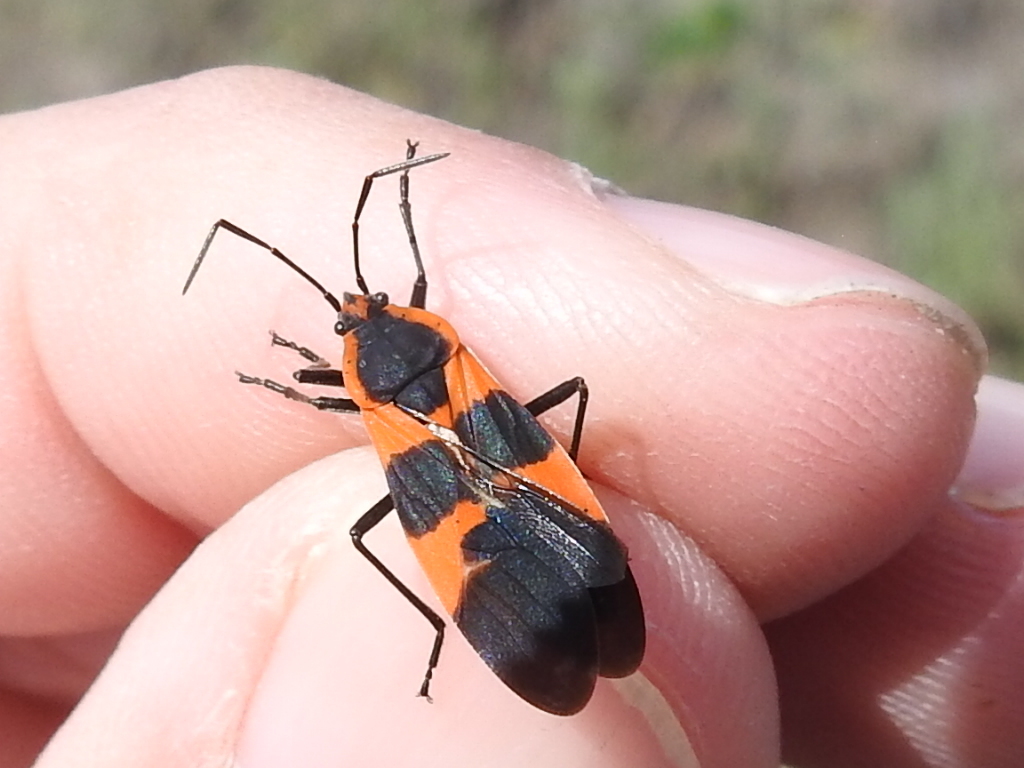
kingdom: Animalia
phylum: Arthropoda
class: Insecta
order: Hemiptera
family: Lygaeidae
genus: Oncopeltus
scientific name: Oncopeltus fasciatus
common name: Large milkweed bug
